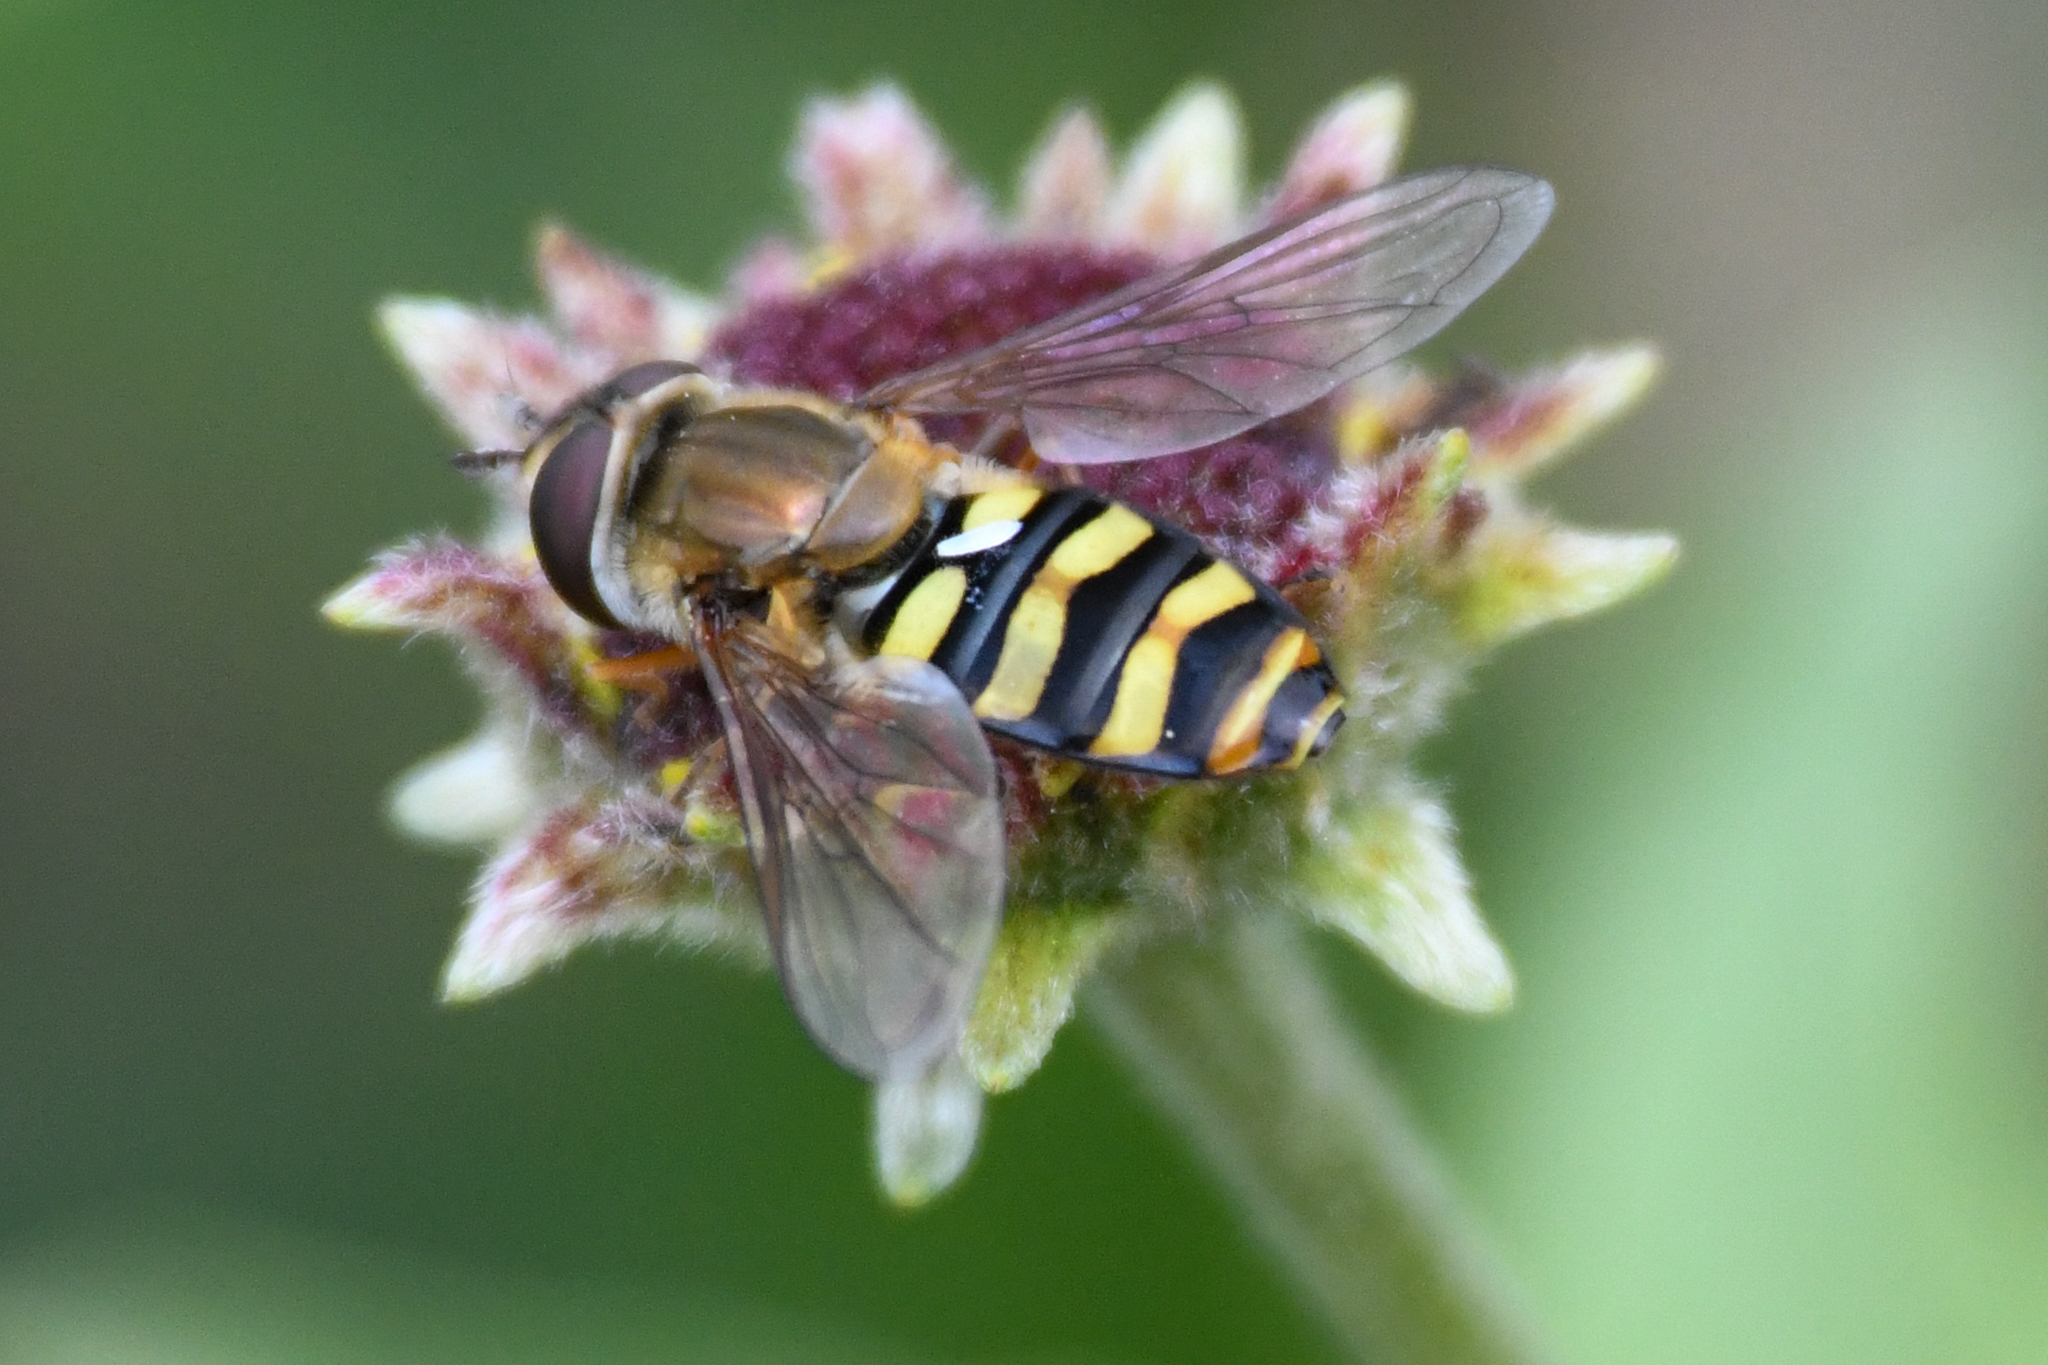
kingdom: Animalia
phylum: Arthropoda
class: Insecta
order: Diptera
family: Syrphidae
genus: Eupeodes
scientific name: Eupeodes fumipennis
